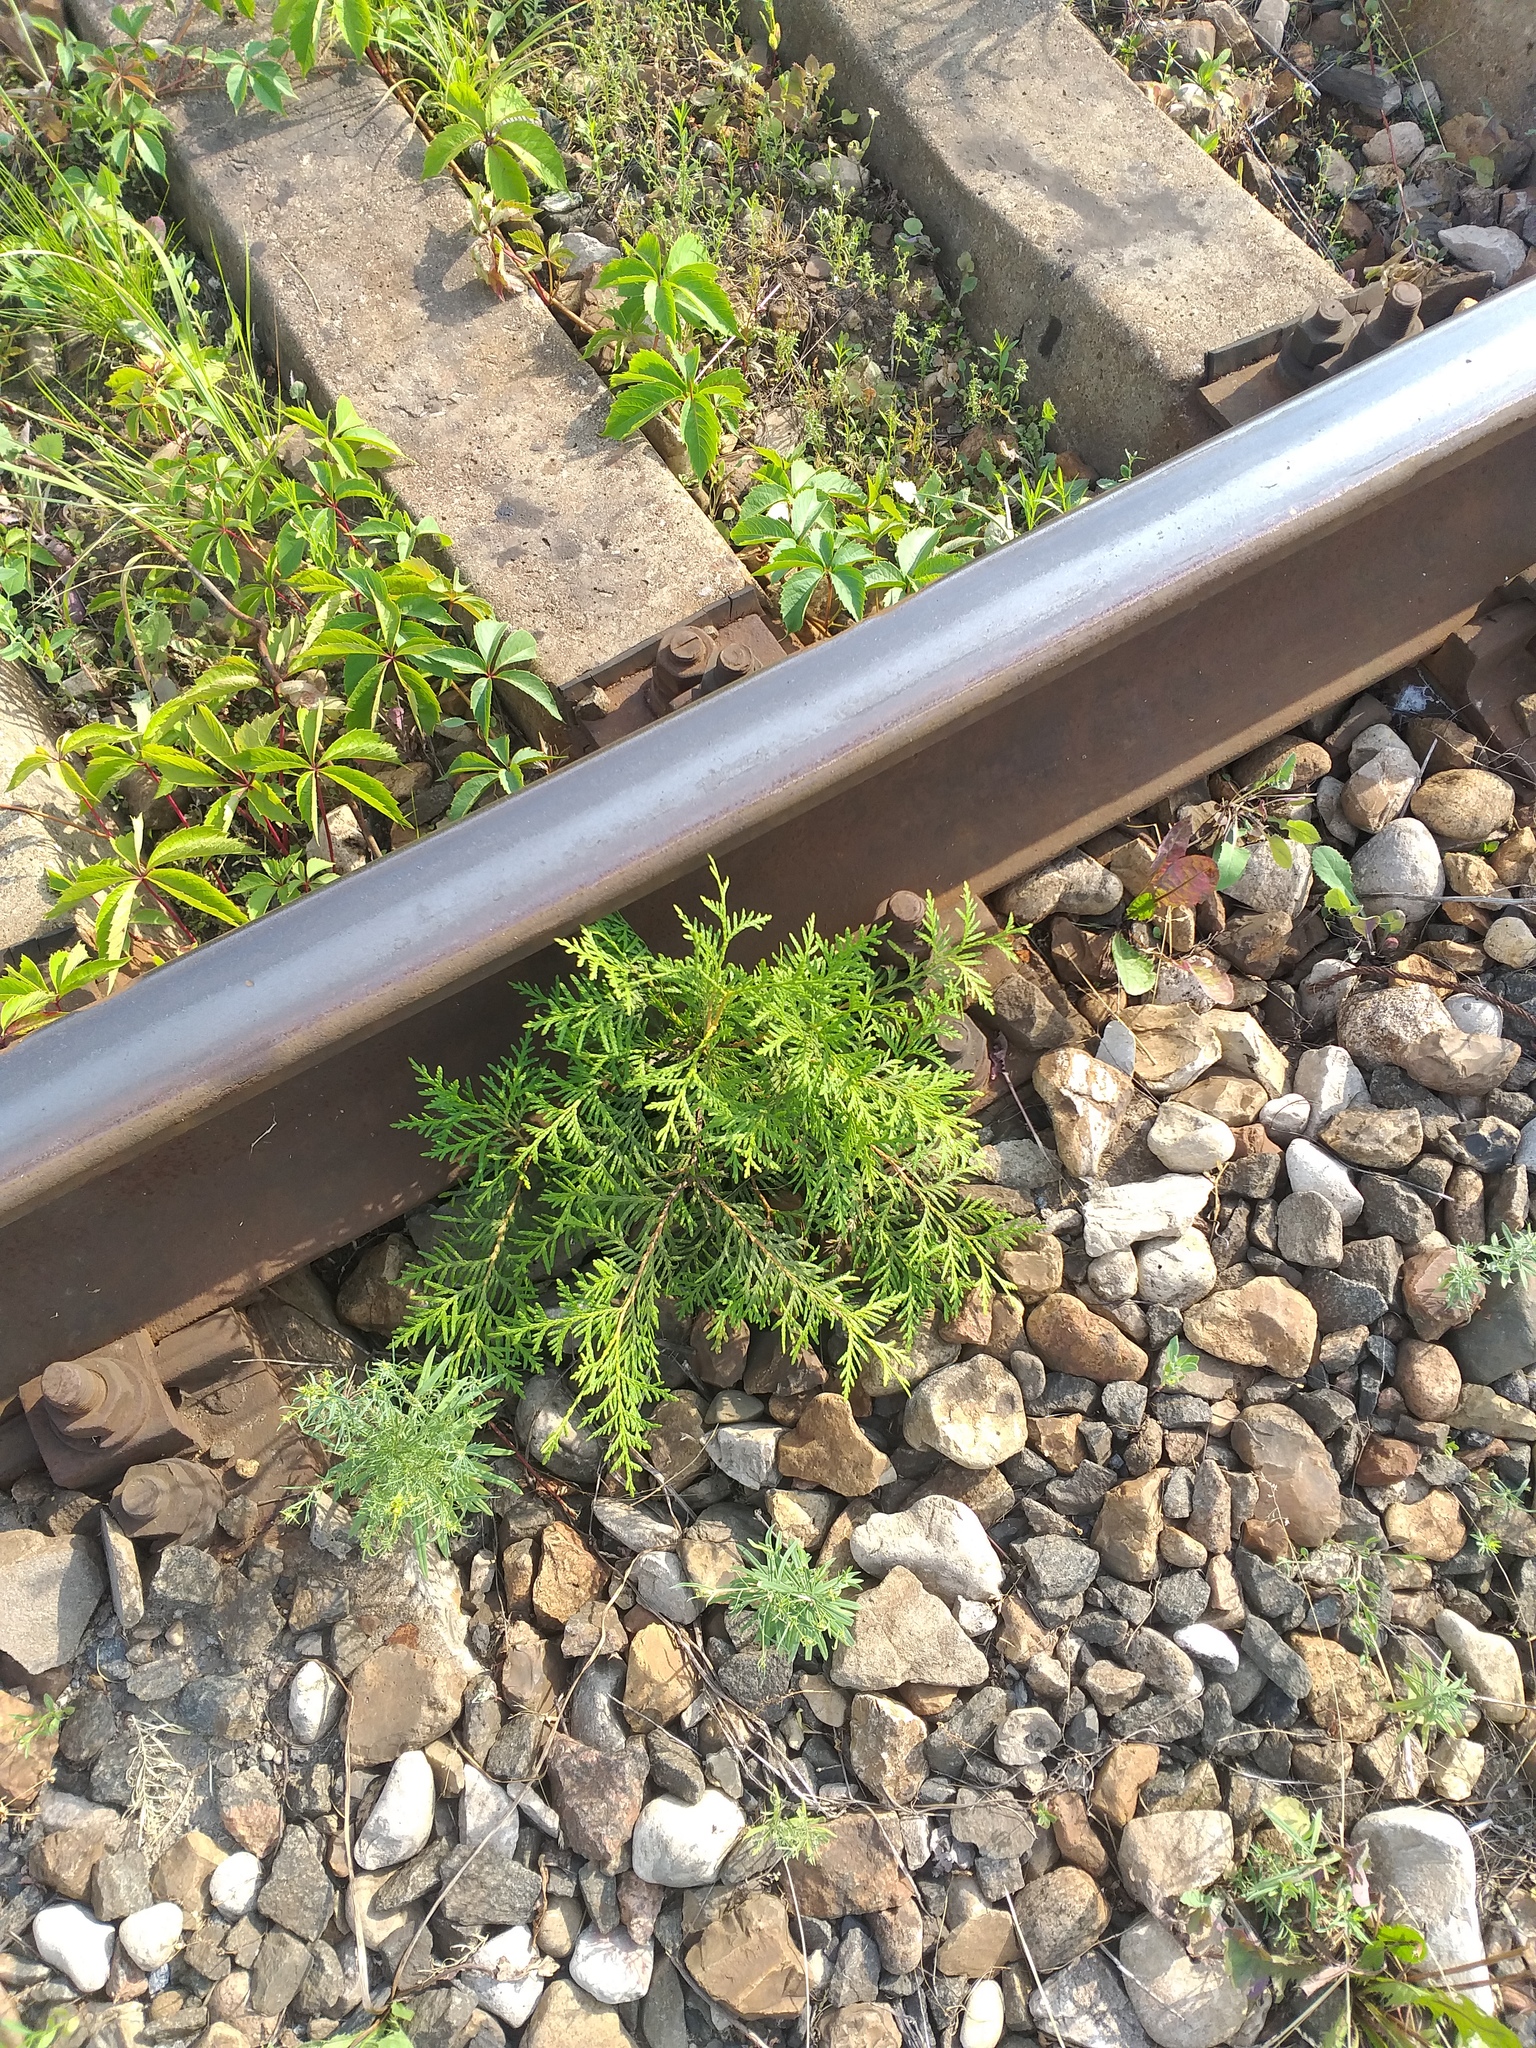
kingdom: Plantae
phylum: Tracheophyta
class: Pinopsida
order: Pinales
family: Cupressaceae
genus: Thuja
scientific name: Thuja occidentalis
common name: Northern white-cedar
